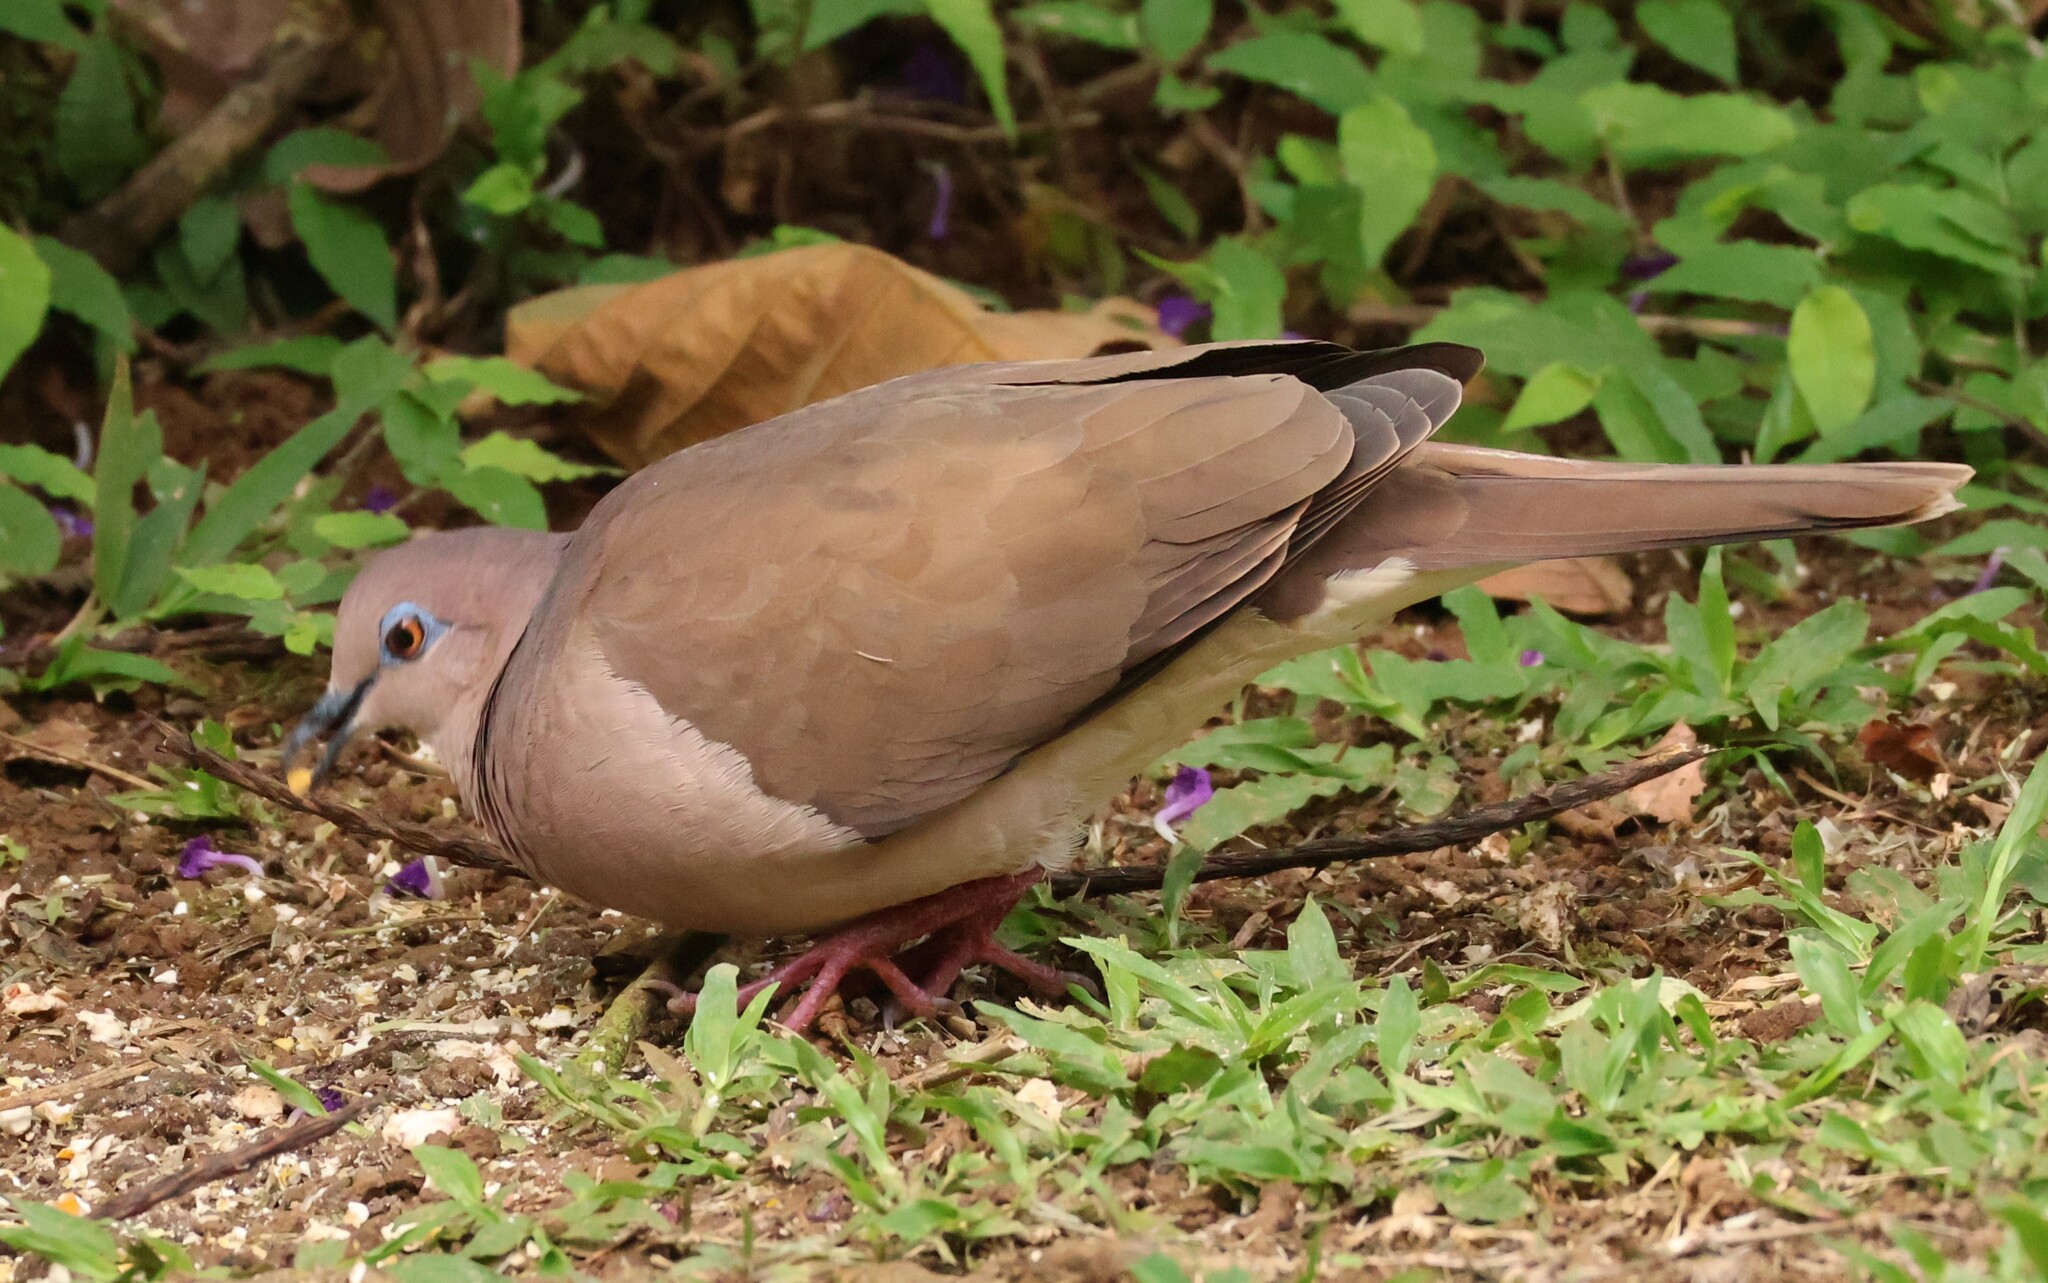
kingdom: Animalia
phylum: Chordata
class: Aves
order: Columbiformes
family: Columbidae
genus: Leptotila
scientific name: Leptotila verreauxi
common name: White-tipped dove
